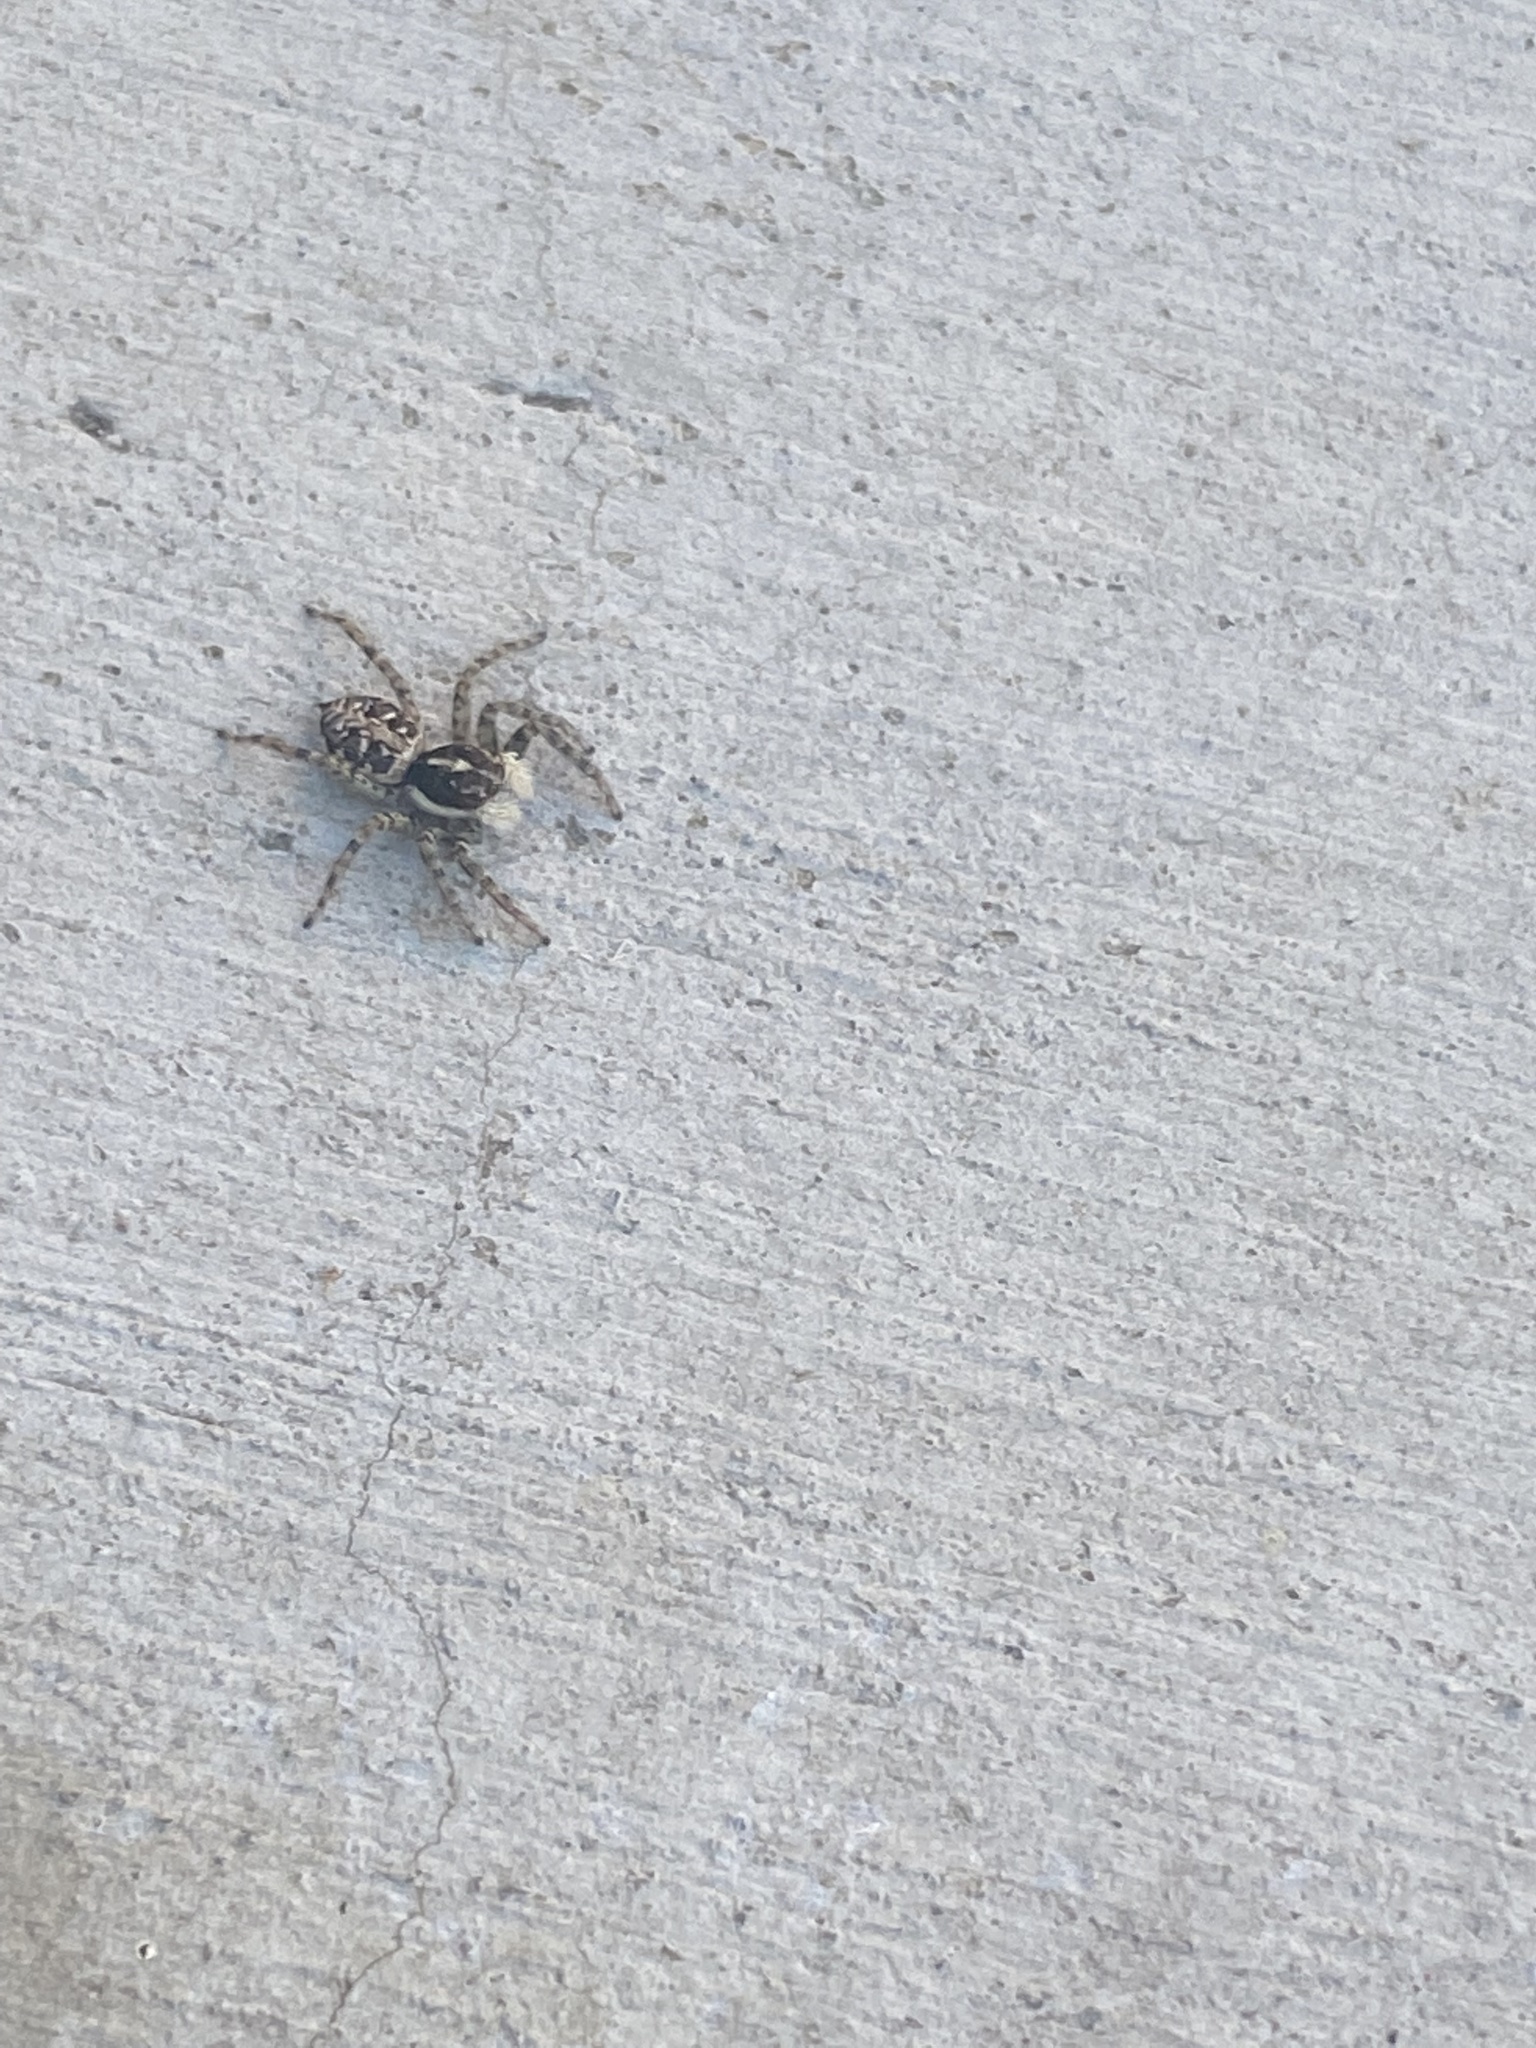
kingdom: Animalia
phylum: Arthropoda
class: Arachnida
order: Araneae
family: Salticidae
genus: Menemerus
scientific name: Menemerus semilimbatus
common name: Jumping spider
